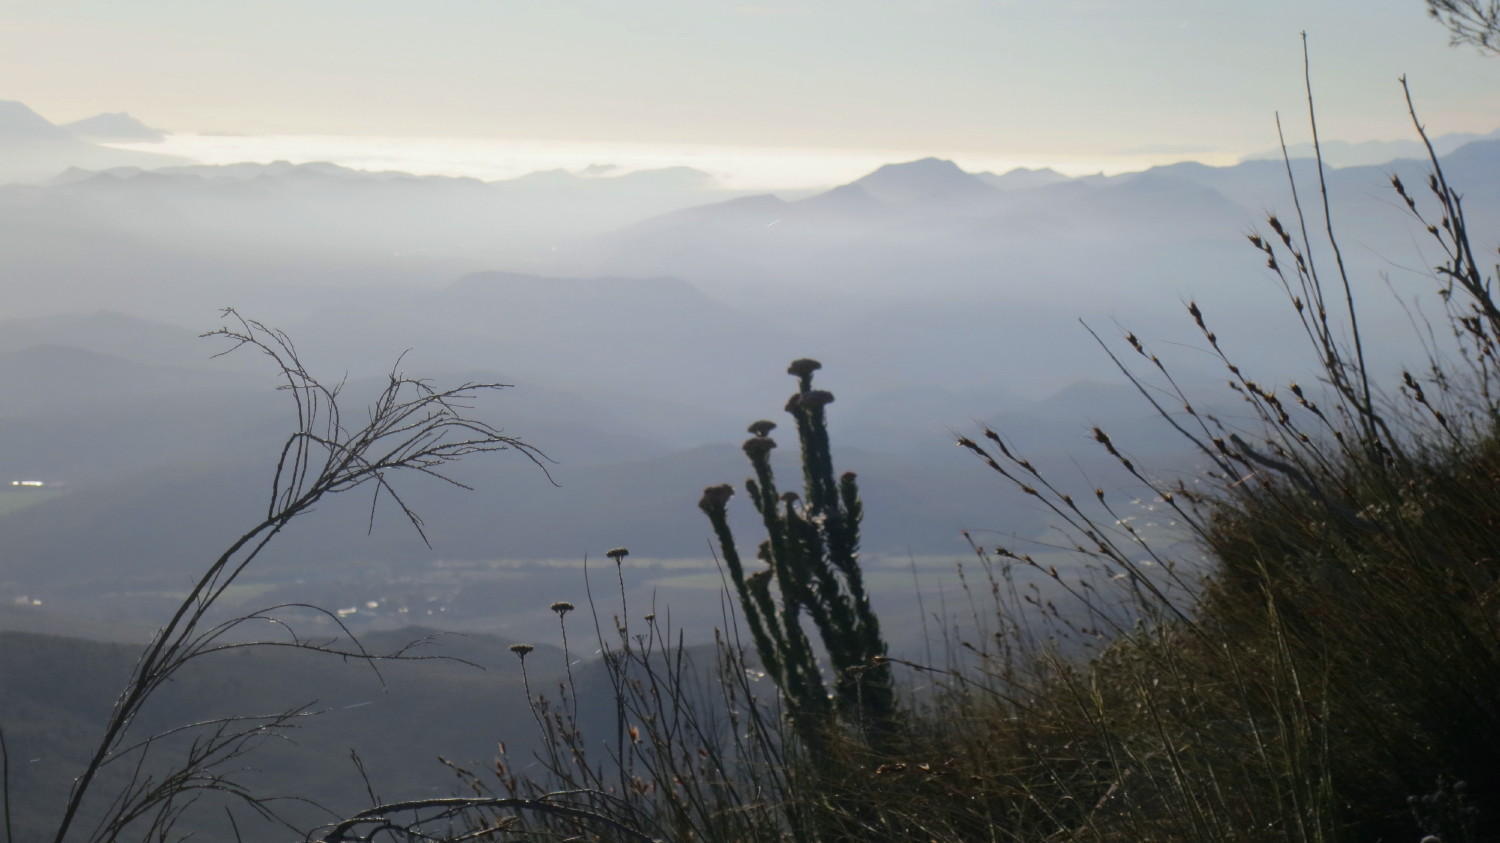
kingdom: Plantae
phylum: Tracheophyta
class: Magnoliopsida
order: Asterales
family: Asteraceae
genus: Syncarpha
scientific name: Syncarpha milleflora
